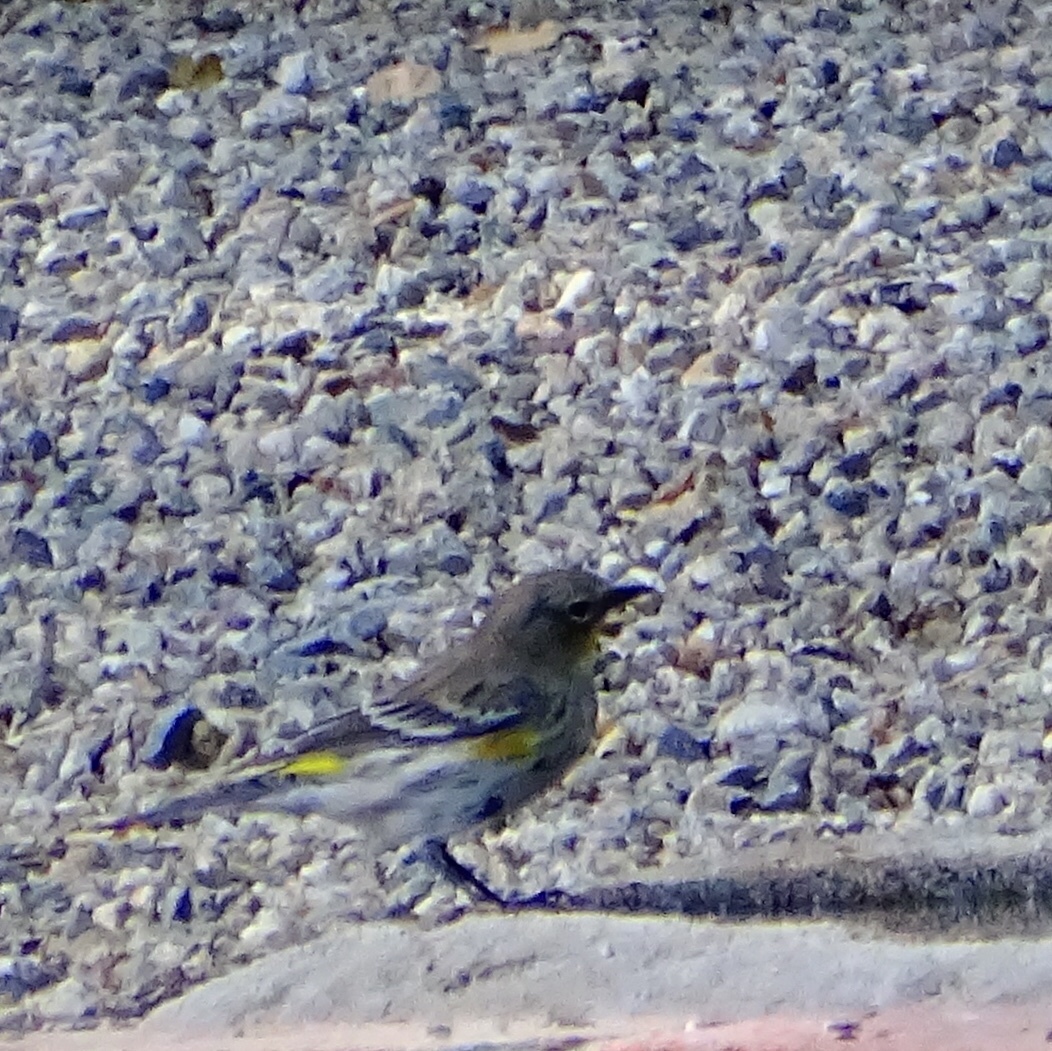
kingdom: Animalia
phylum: Chordata
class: Aves
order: Passeriformes
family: Parulidae
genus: Setophaga
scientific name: Setophaga coronata
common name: Myrtle warbler
